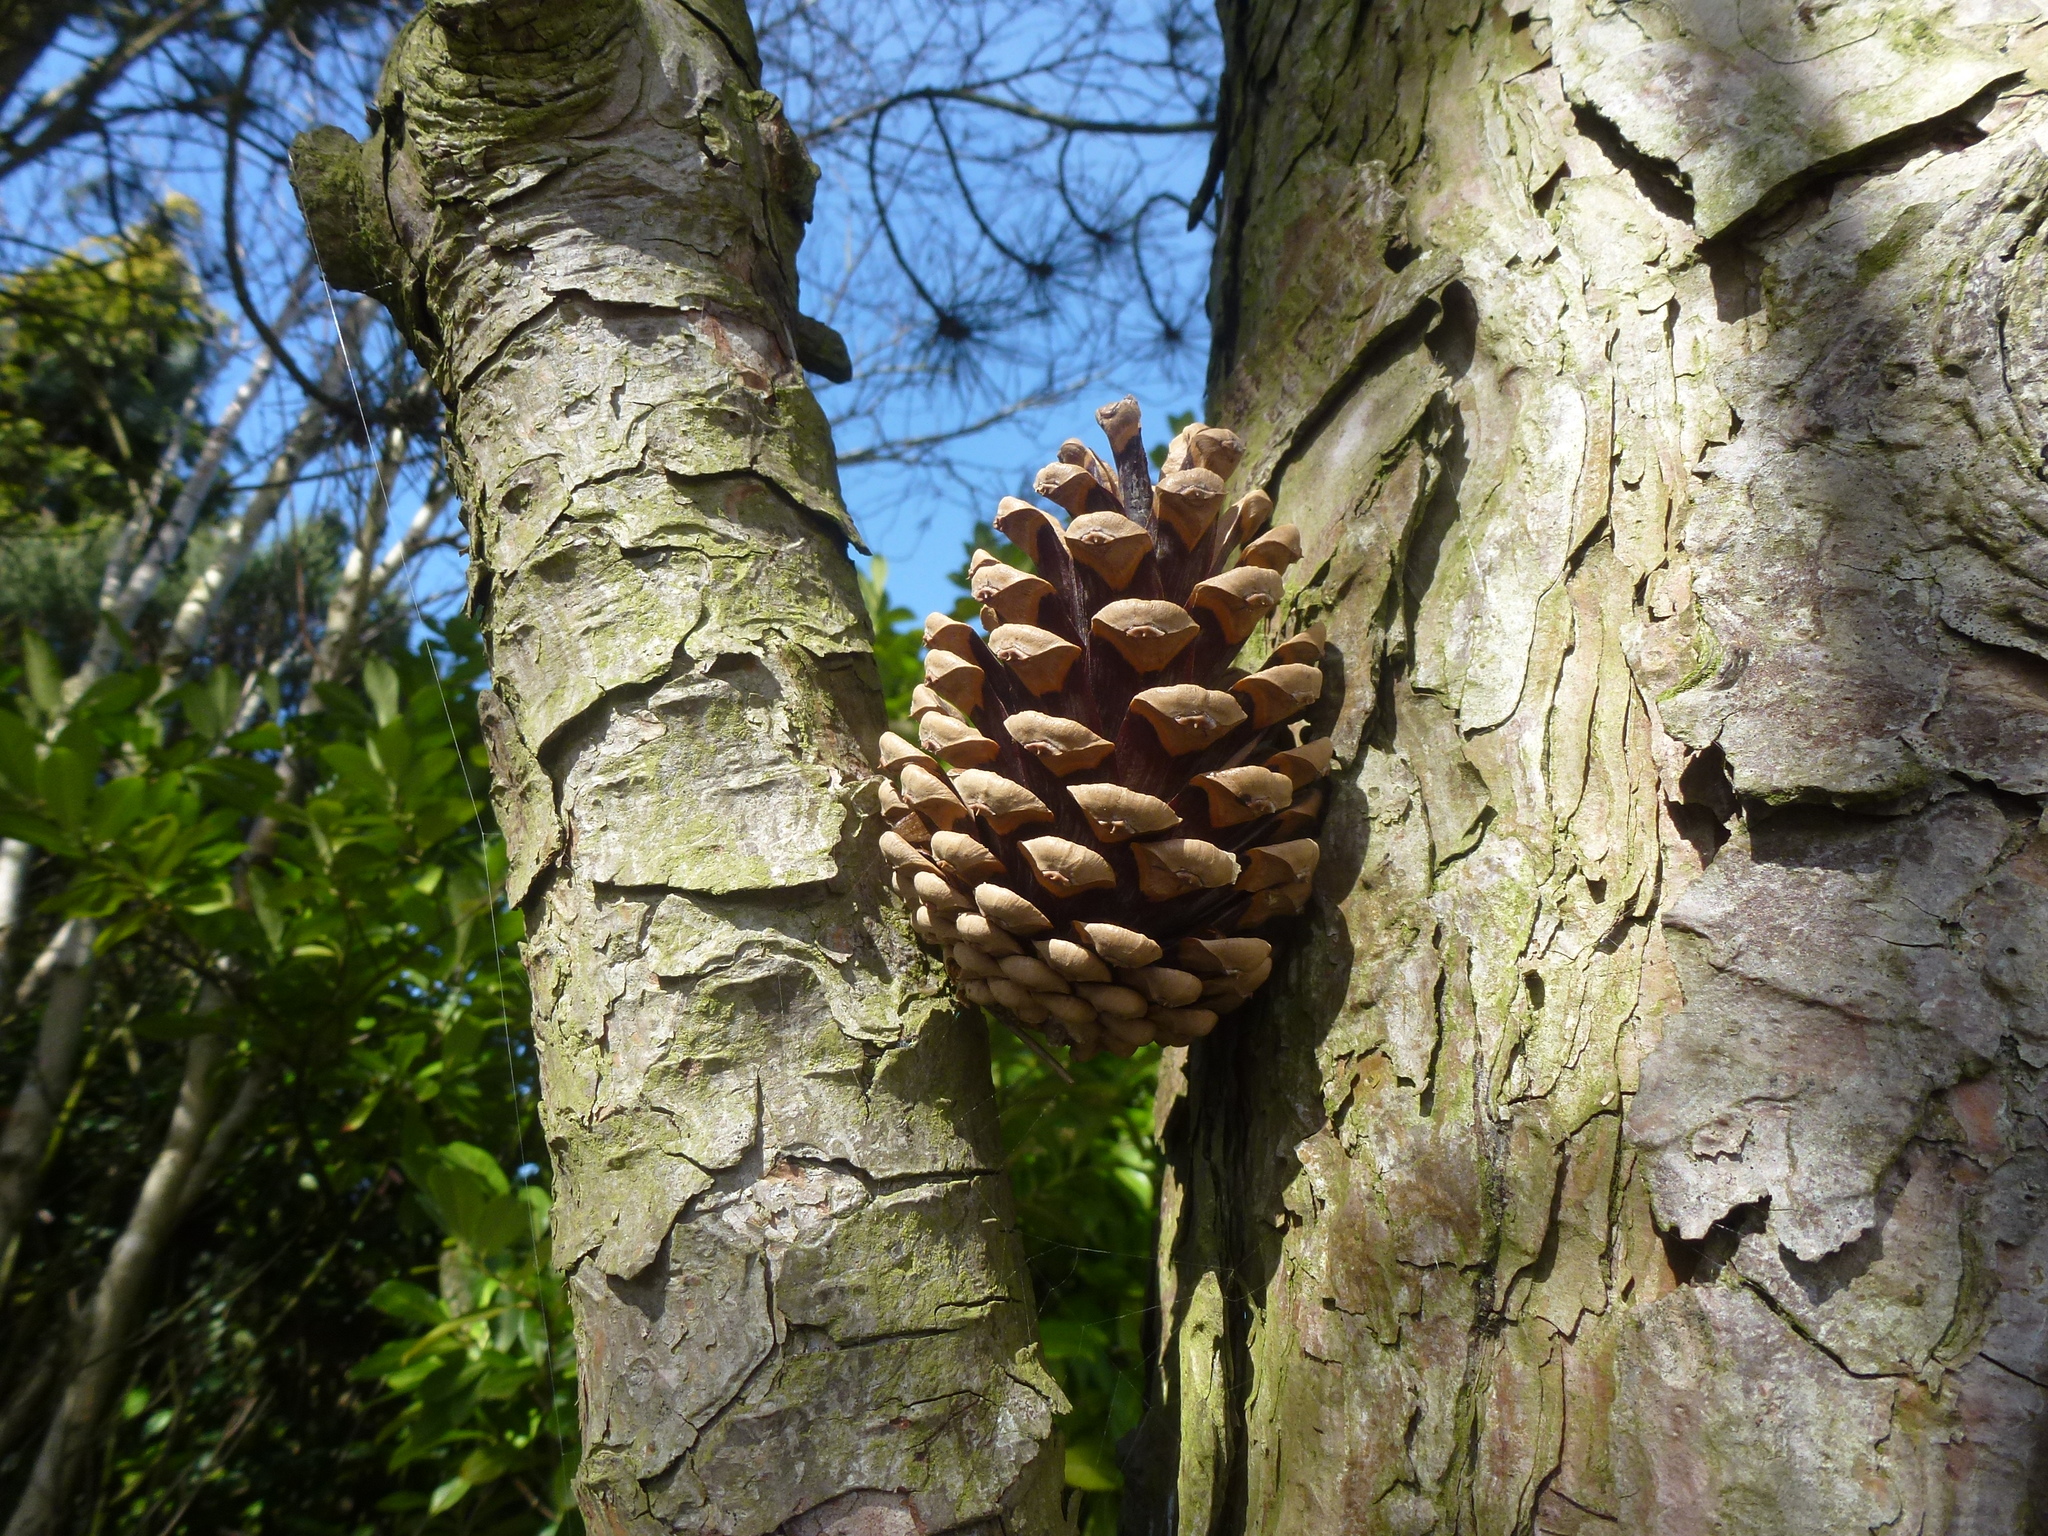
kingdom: Plantae
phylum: Tracheophyta
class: Pinopsida
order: Pinales
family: Pinaceae
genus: Pinus
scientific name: Pinus sylvestris
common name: Scots pine
